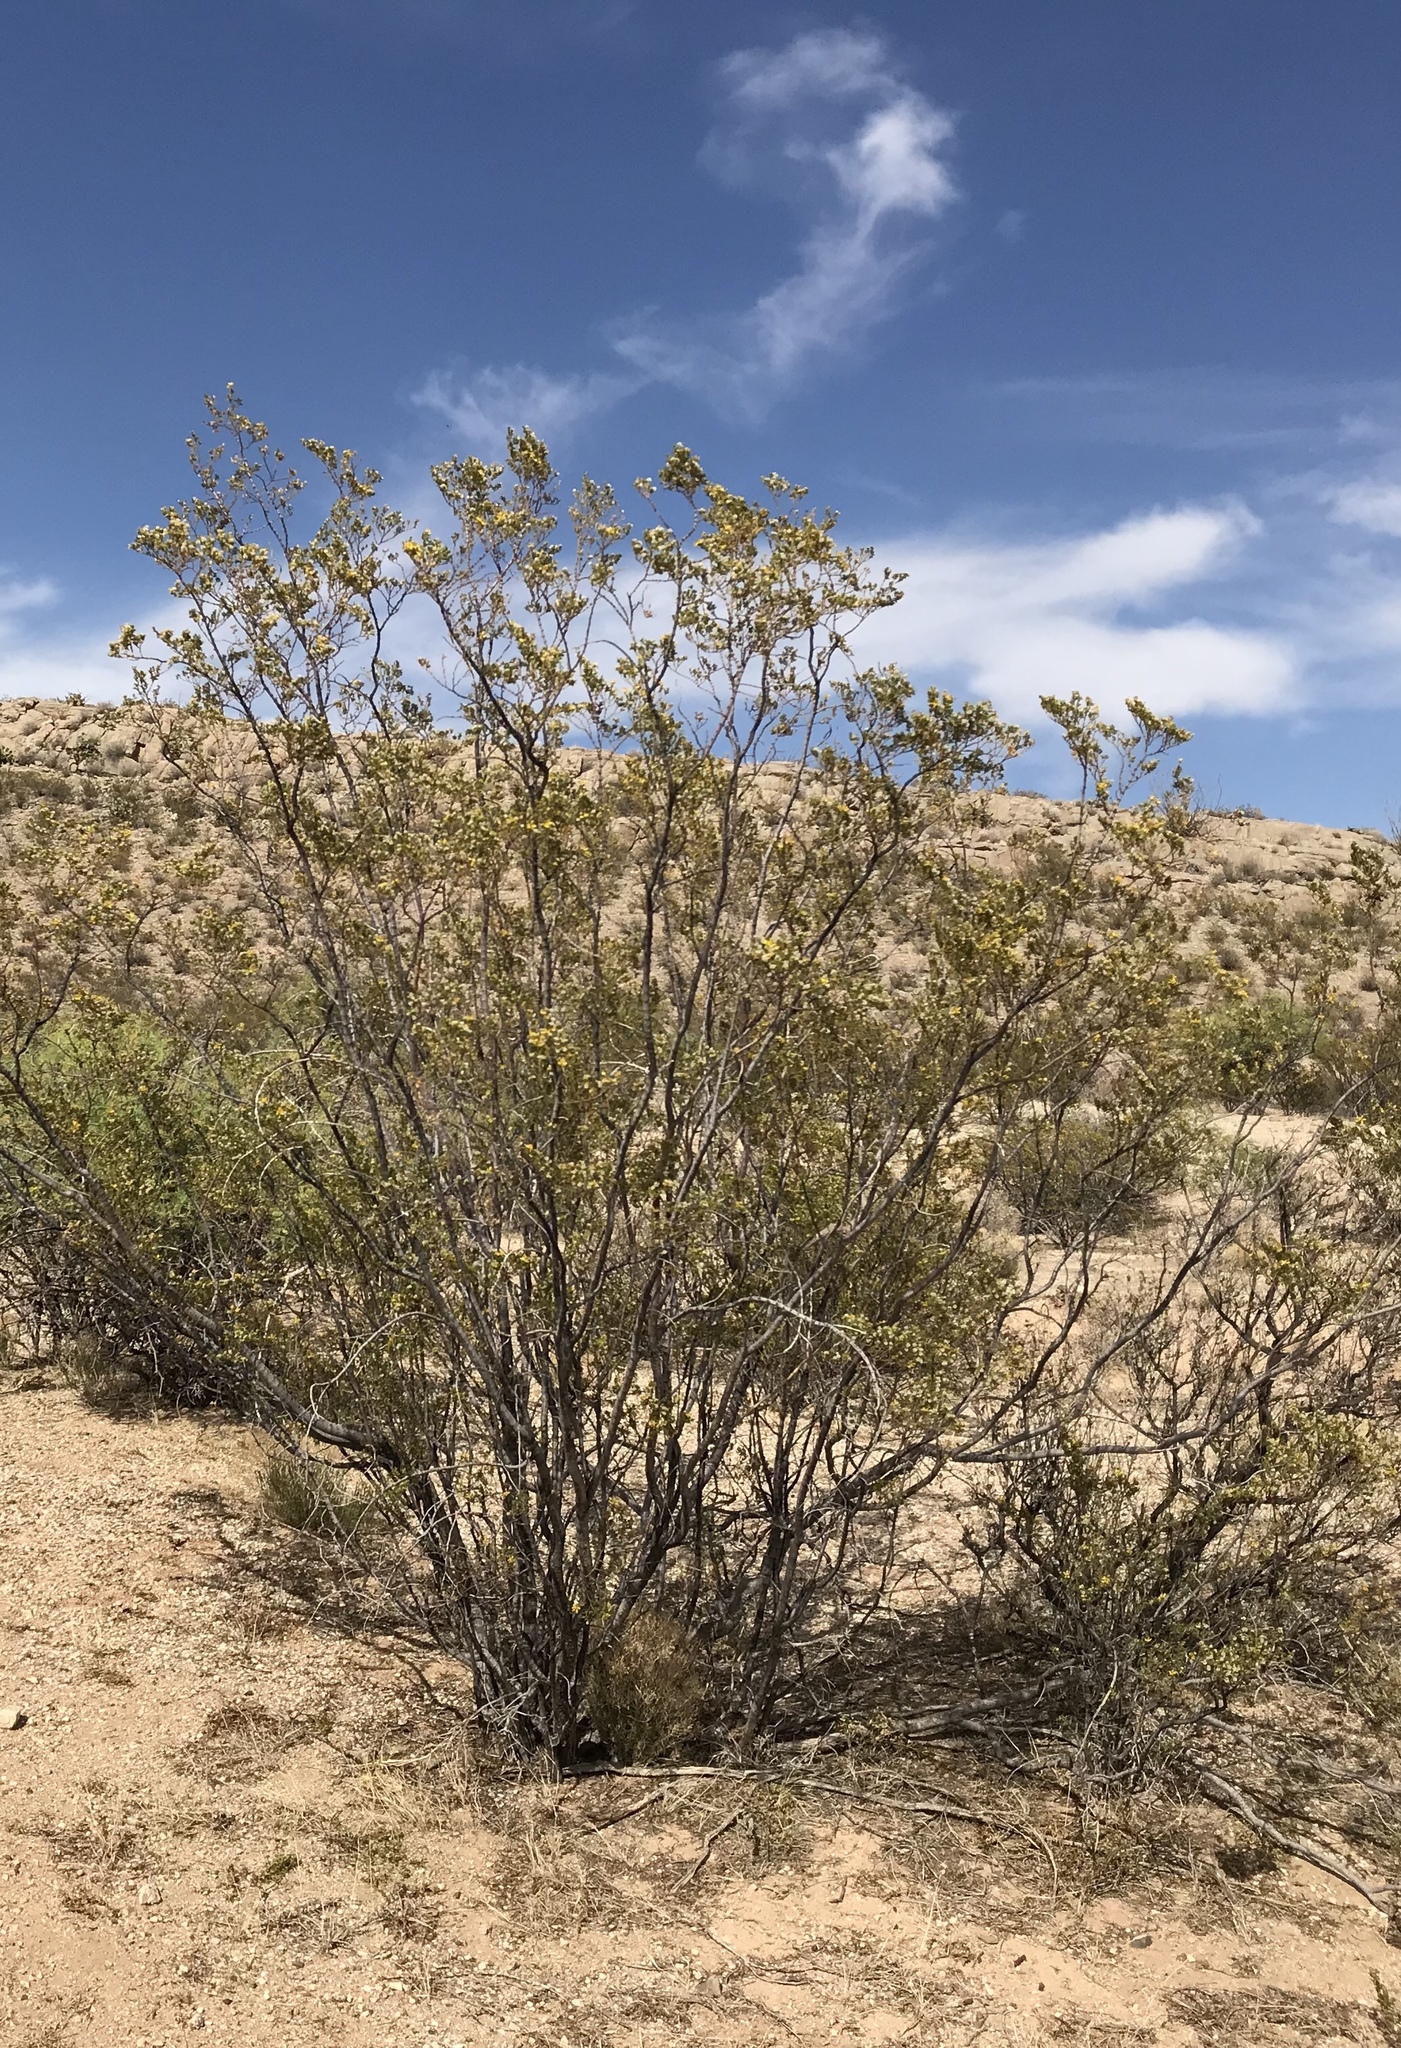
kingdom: Plantae
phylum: Tracheophyta
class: Magnoliopsida
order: Zygophyllales
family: Zygophyllaceae
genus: Larrea
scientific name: Larrea tridentata
